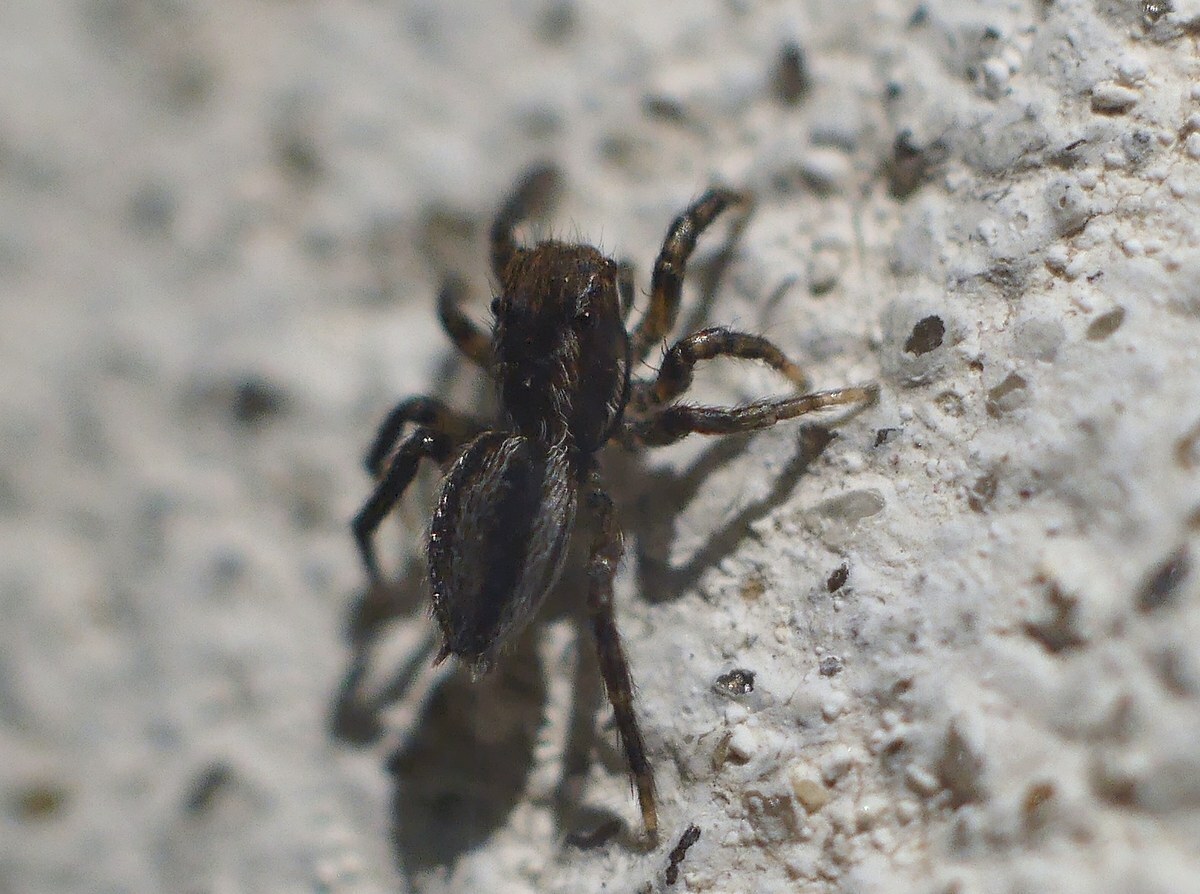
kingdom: Animalia
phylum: Arthropoda
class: Arachnida
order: Araneae
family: Salticidae
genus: Phlegra
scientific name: Phlegra fasciata
